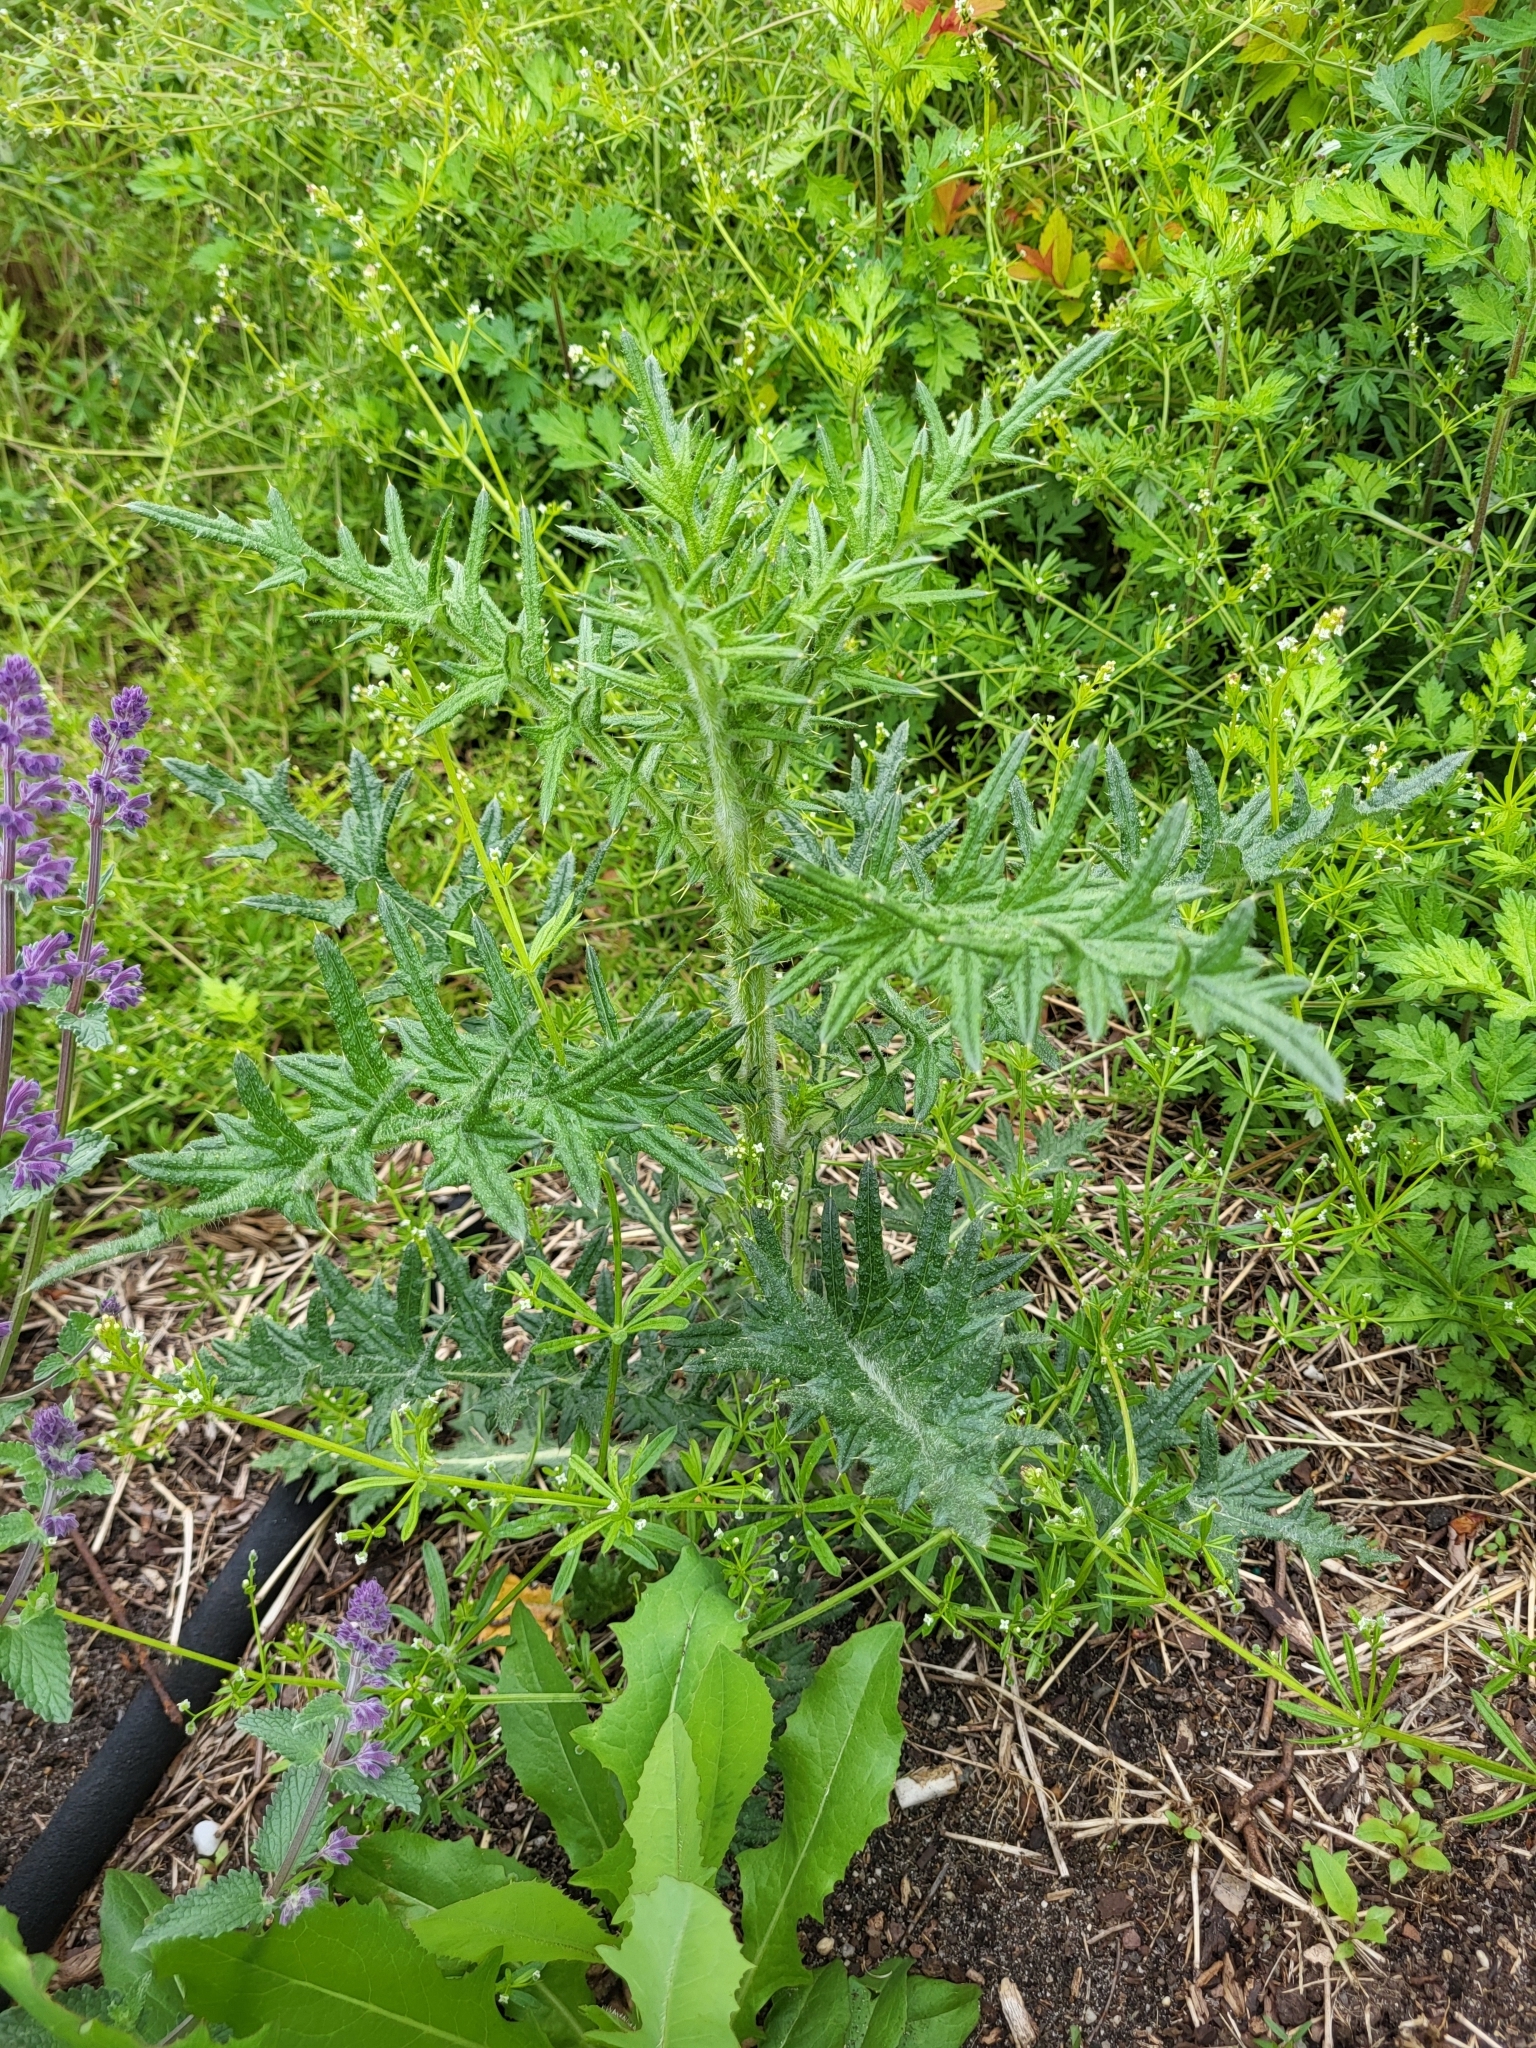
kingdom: Plantae
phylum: Tracheophyta
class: Magnoliopsida
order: Asterales
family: Asteraceae
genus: Cirsium
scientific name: Cirsium vulgare
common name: Bull thistle
